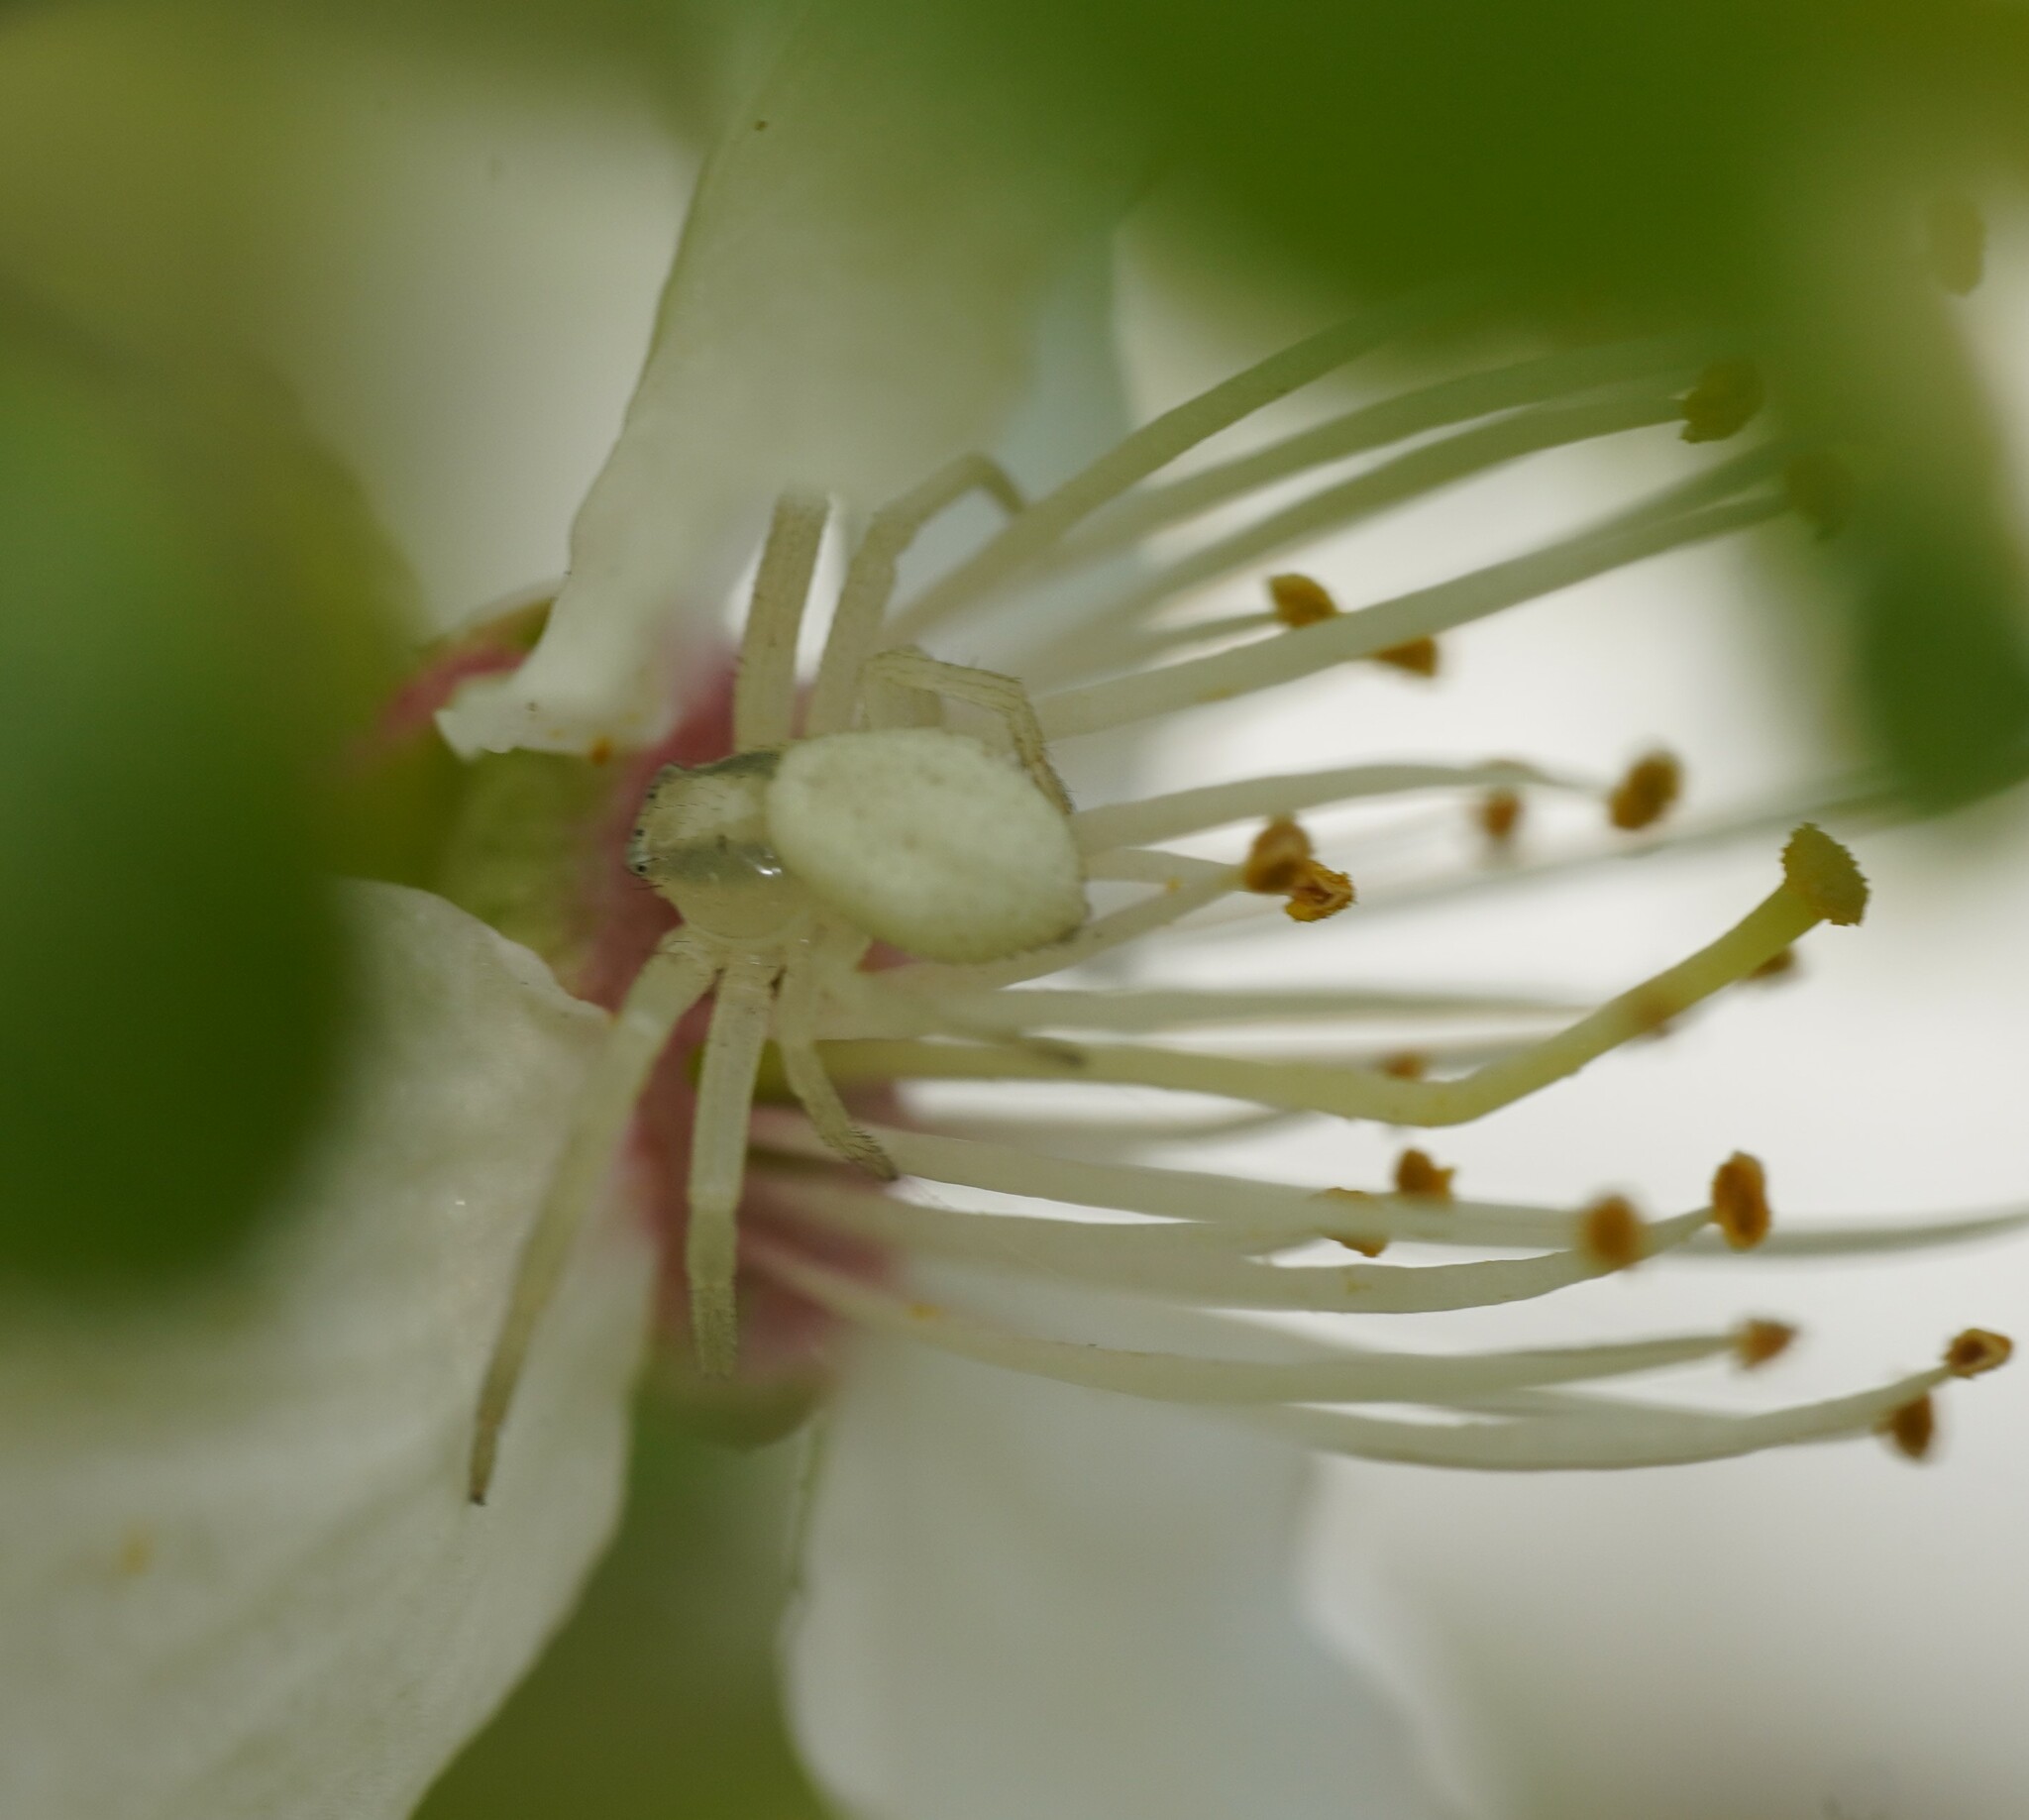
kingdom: Animalia
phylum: Arthropoda
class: Arachnida
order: Araneae
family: Thomisidae
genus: Misumena
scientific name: Misumena vatia
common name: Goldenrod crab spider
